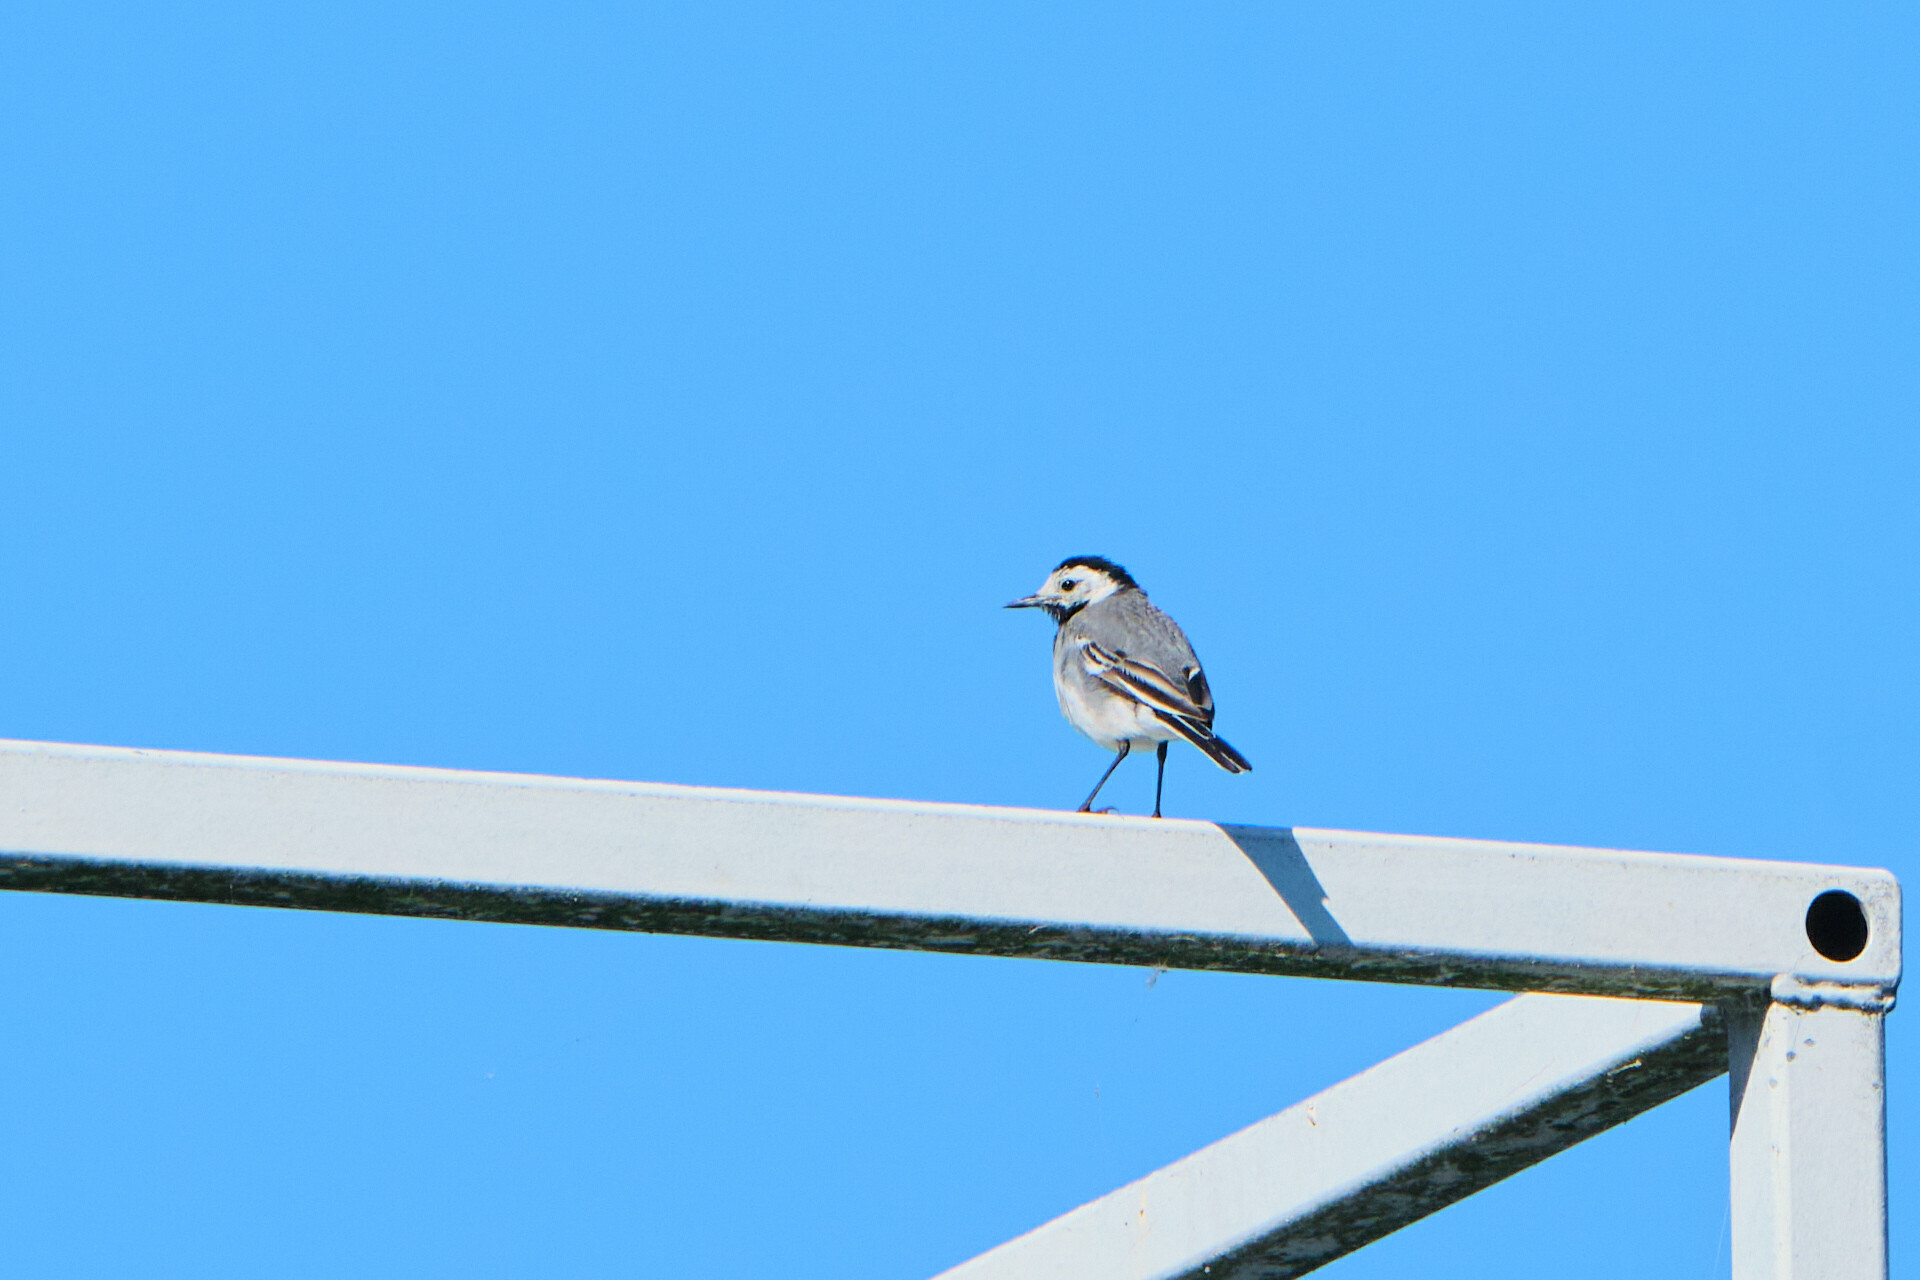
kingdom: Animalia
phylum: Chordata
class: Aves
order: Passeriformes
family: Motacillidae
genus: Motacilla
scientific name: Motacilla alba
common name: White wagtail
